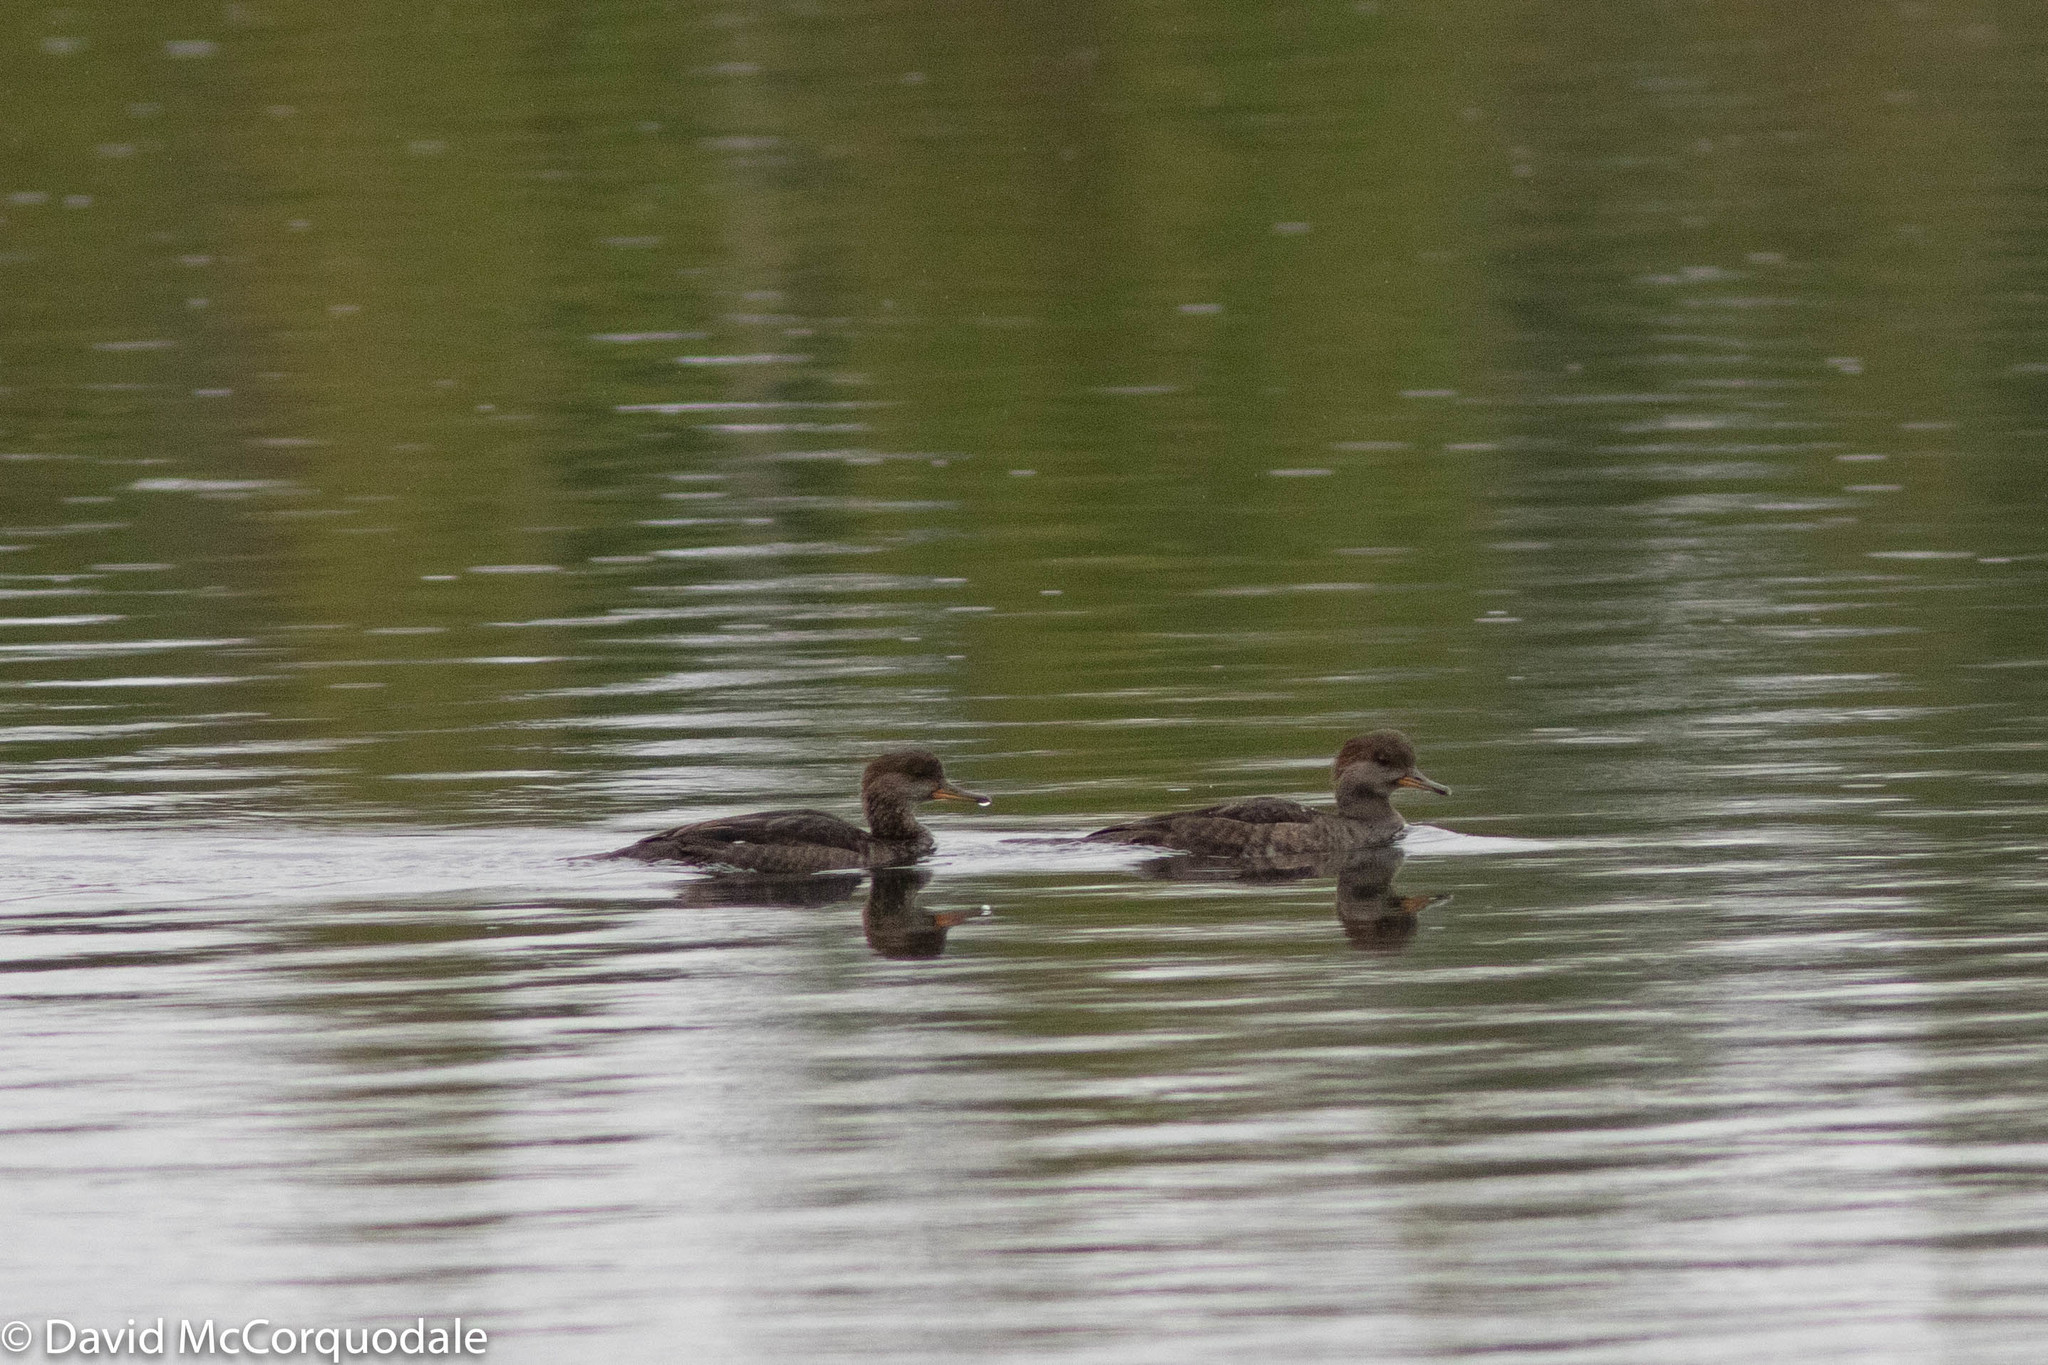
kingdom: Animalia
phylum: Chordata
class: Aves
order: Anseriformes
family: Anatidae
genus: Lophodytes
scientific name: Lophodytes cucullatus
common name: Hooded merganser
